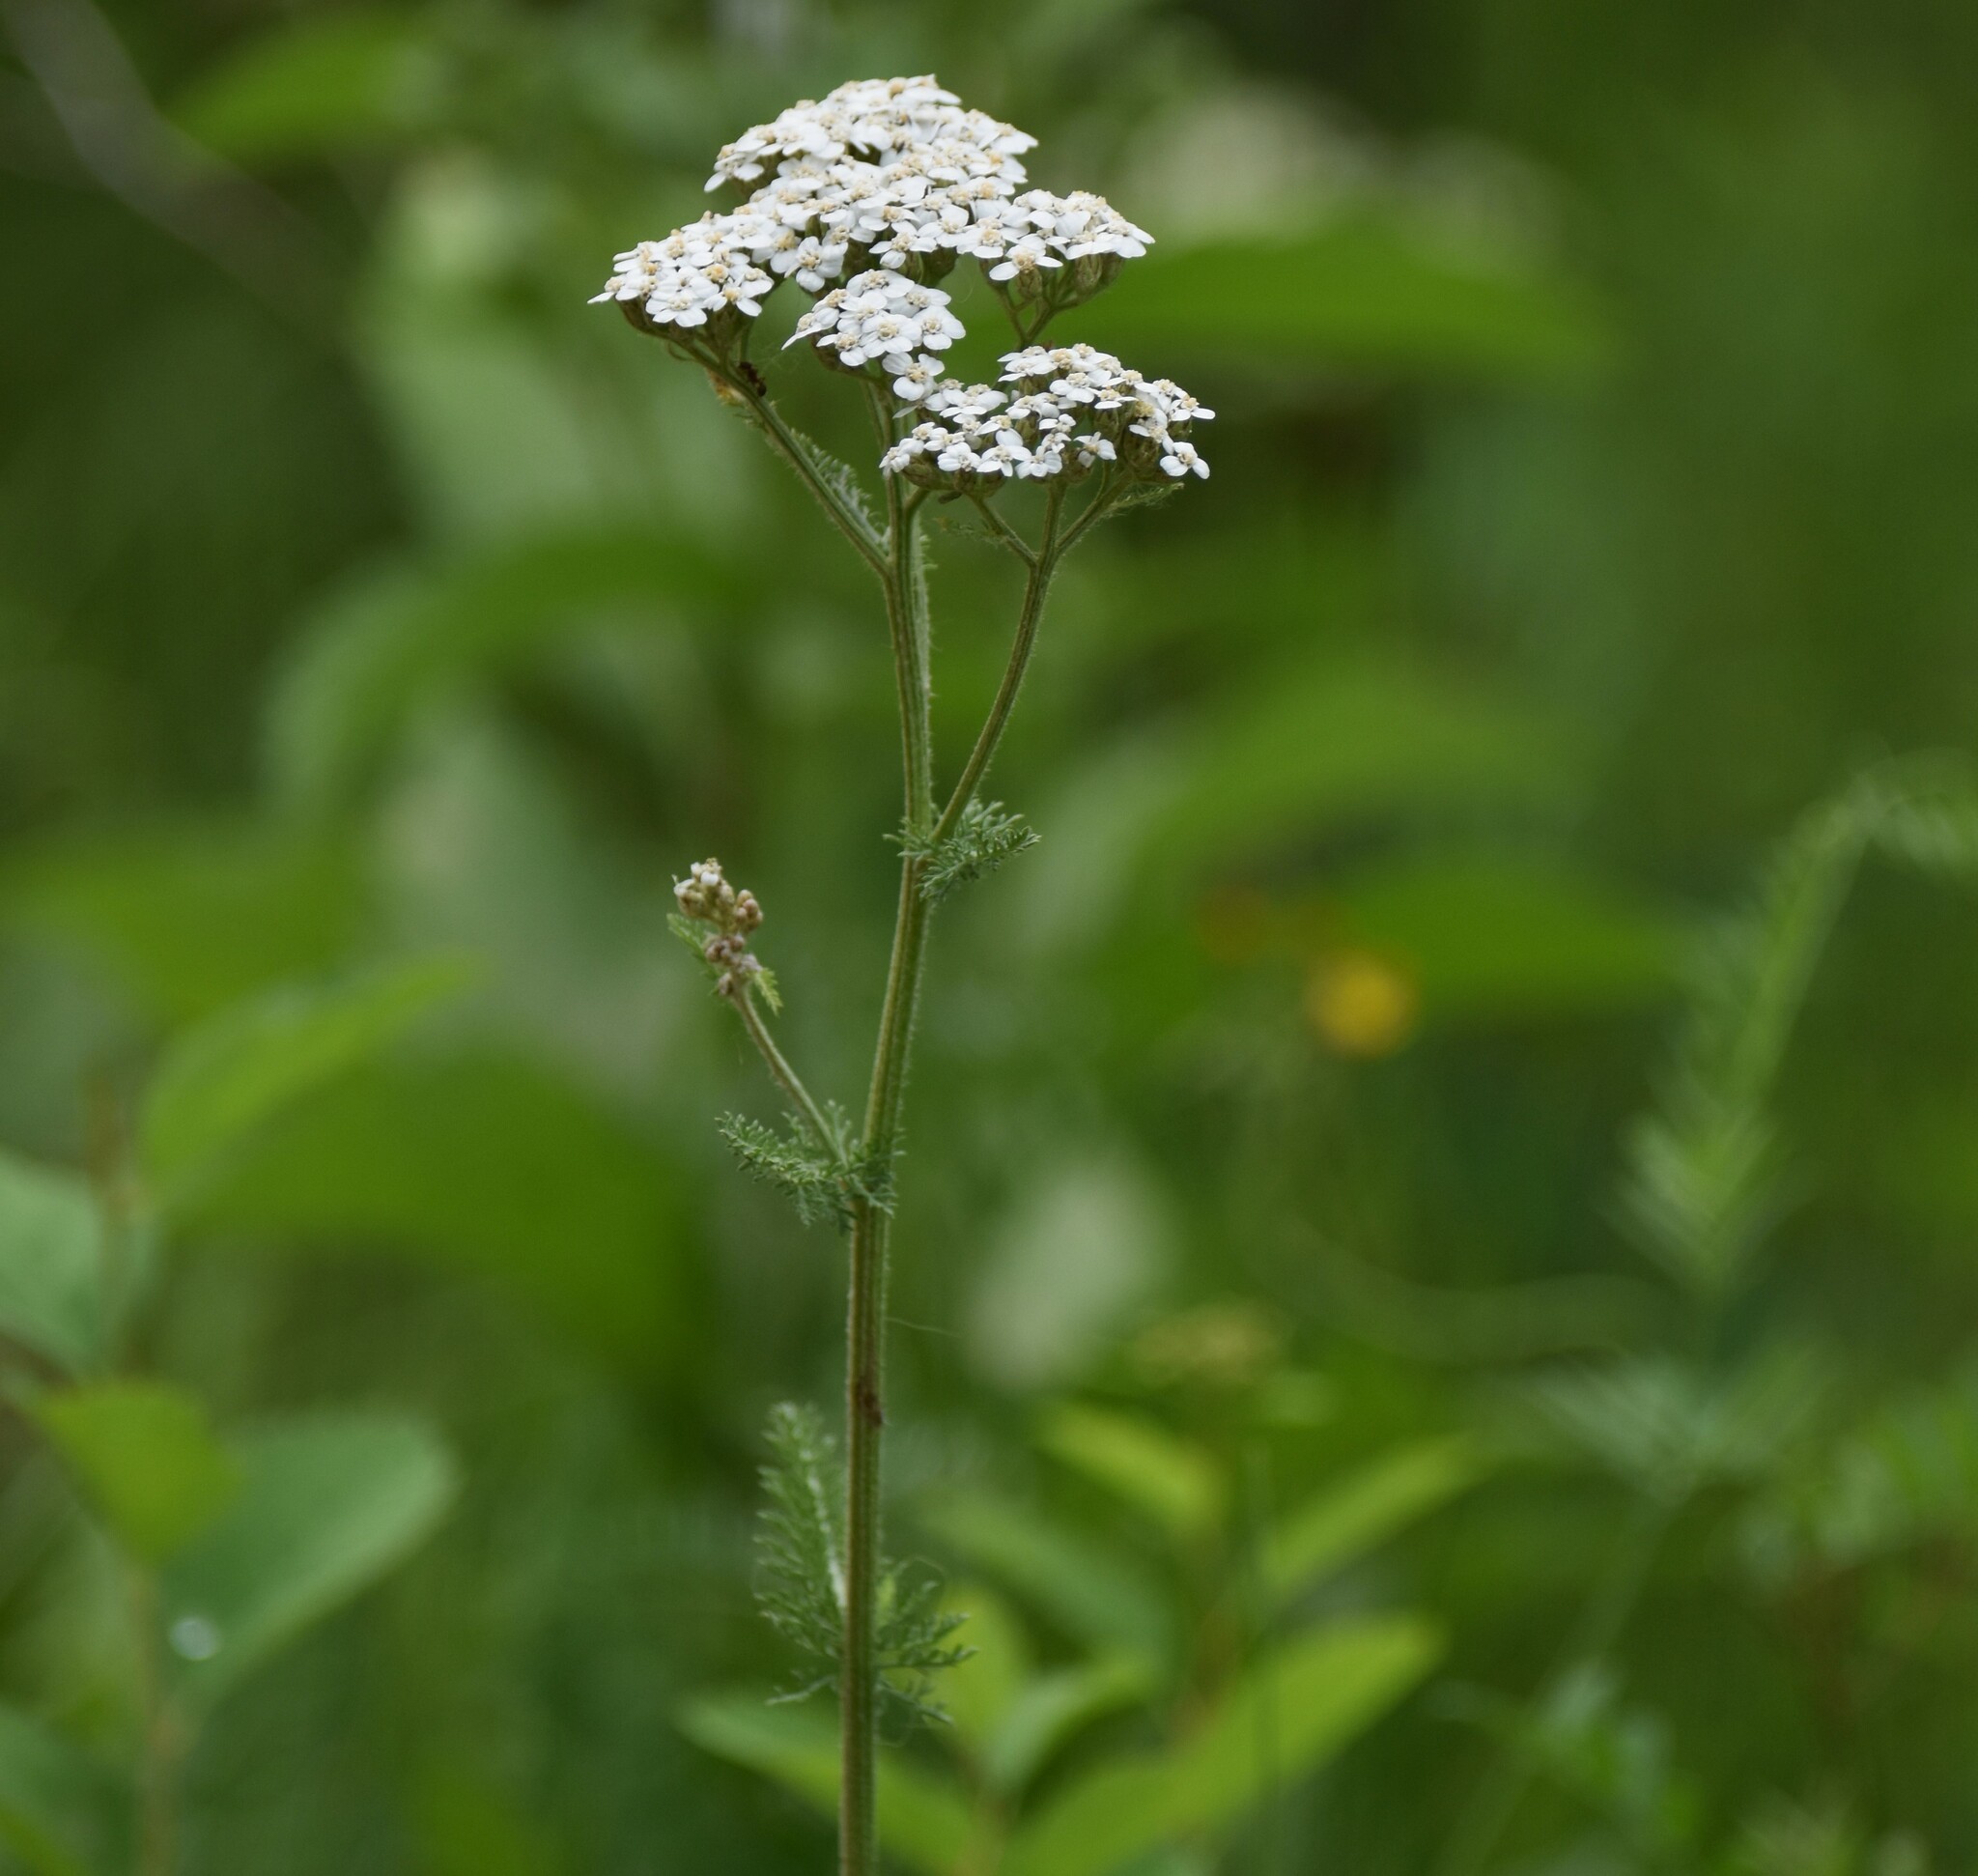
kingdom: Plantae
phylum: Tracheophyta
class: Magnoliopsida
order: Asterales
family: Asteraceae
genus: Achillea
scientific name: Achillea millefolium
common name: Yarrow
